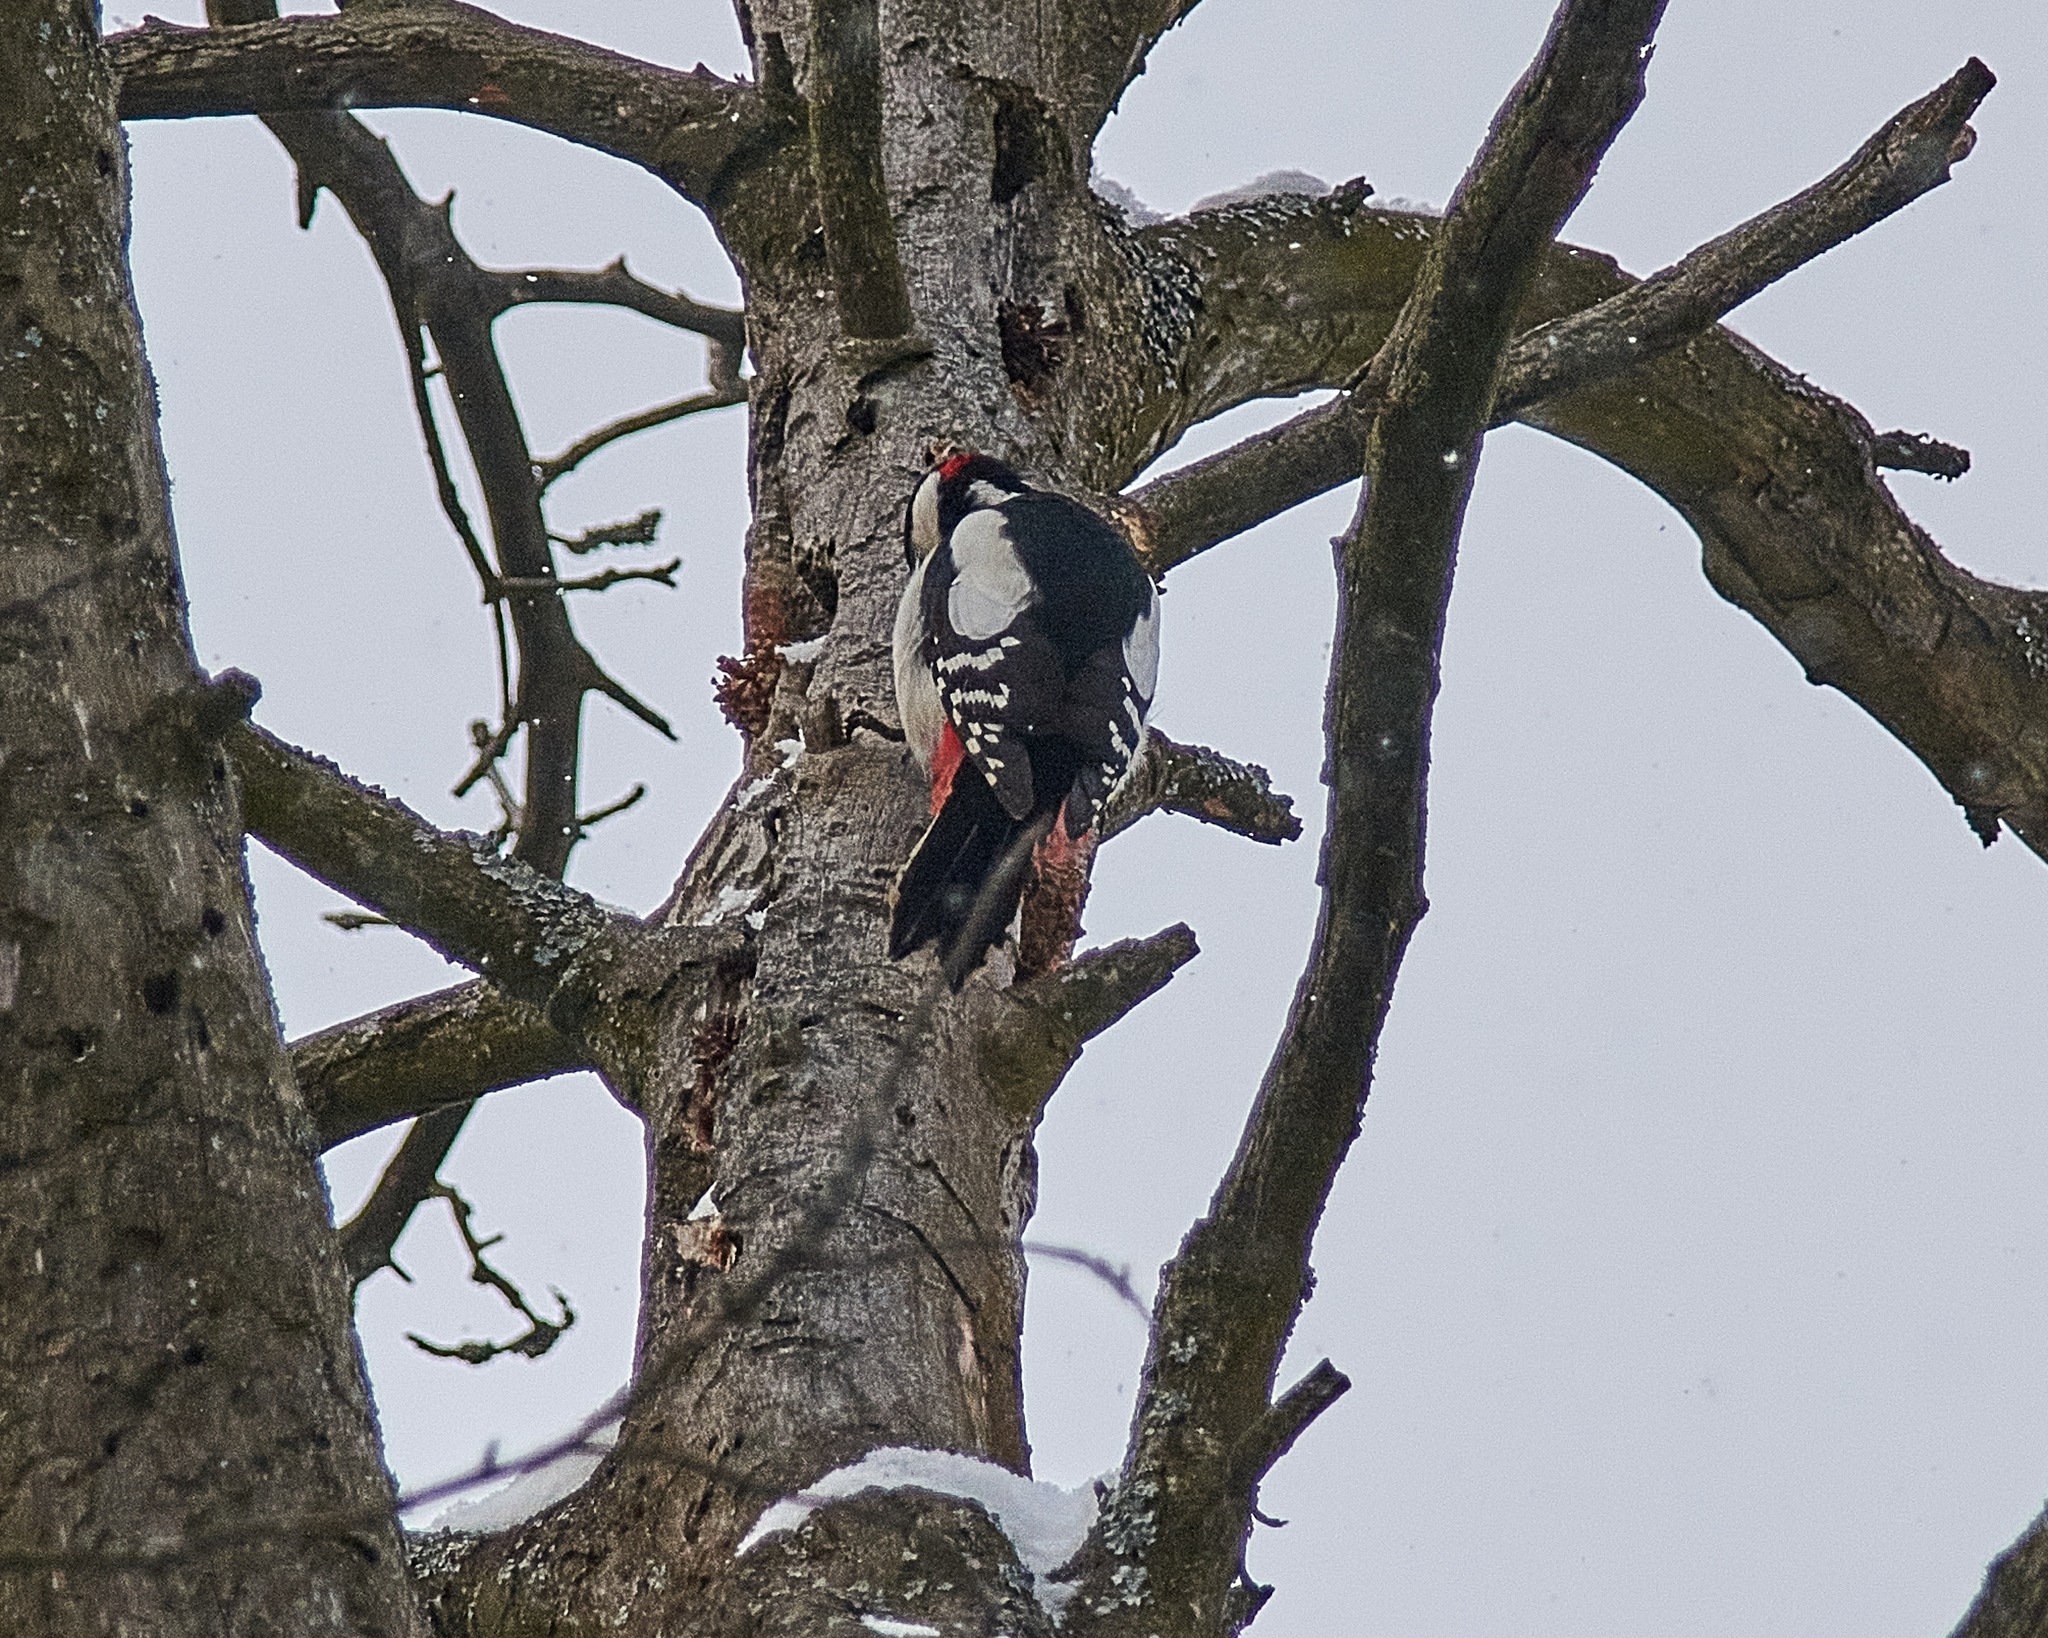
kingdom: Animalia
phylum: Chordata
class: Aves
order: Piciformes
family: Picidae
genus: Dendrocopos
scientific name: Dendrocopos major
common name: Great spotted woodpecker
